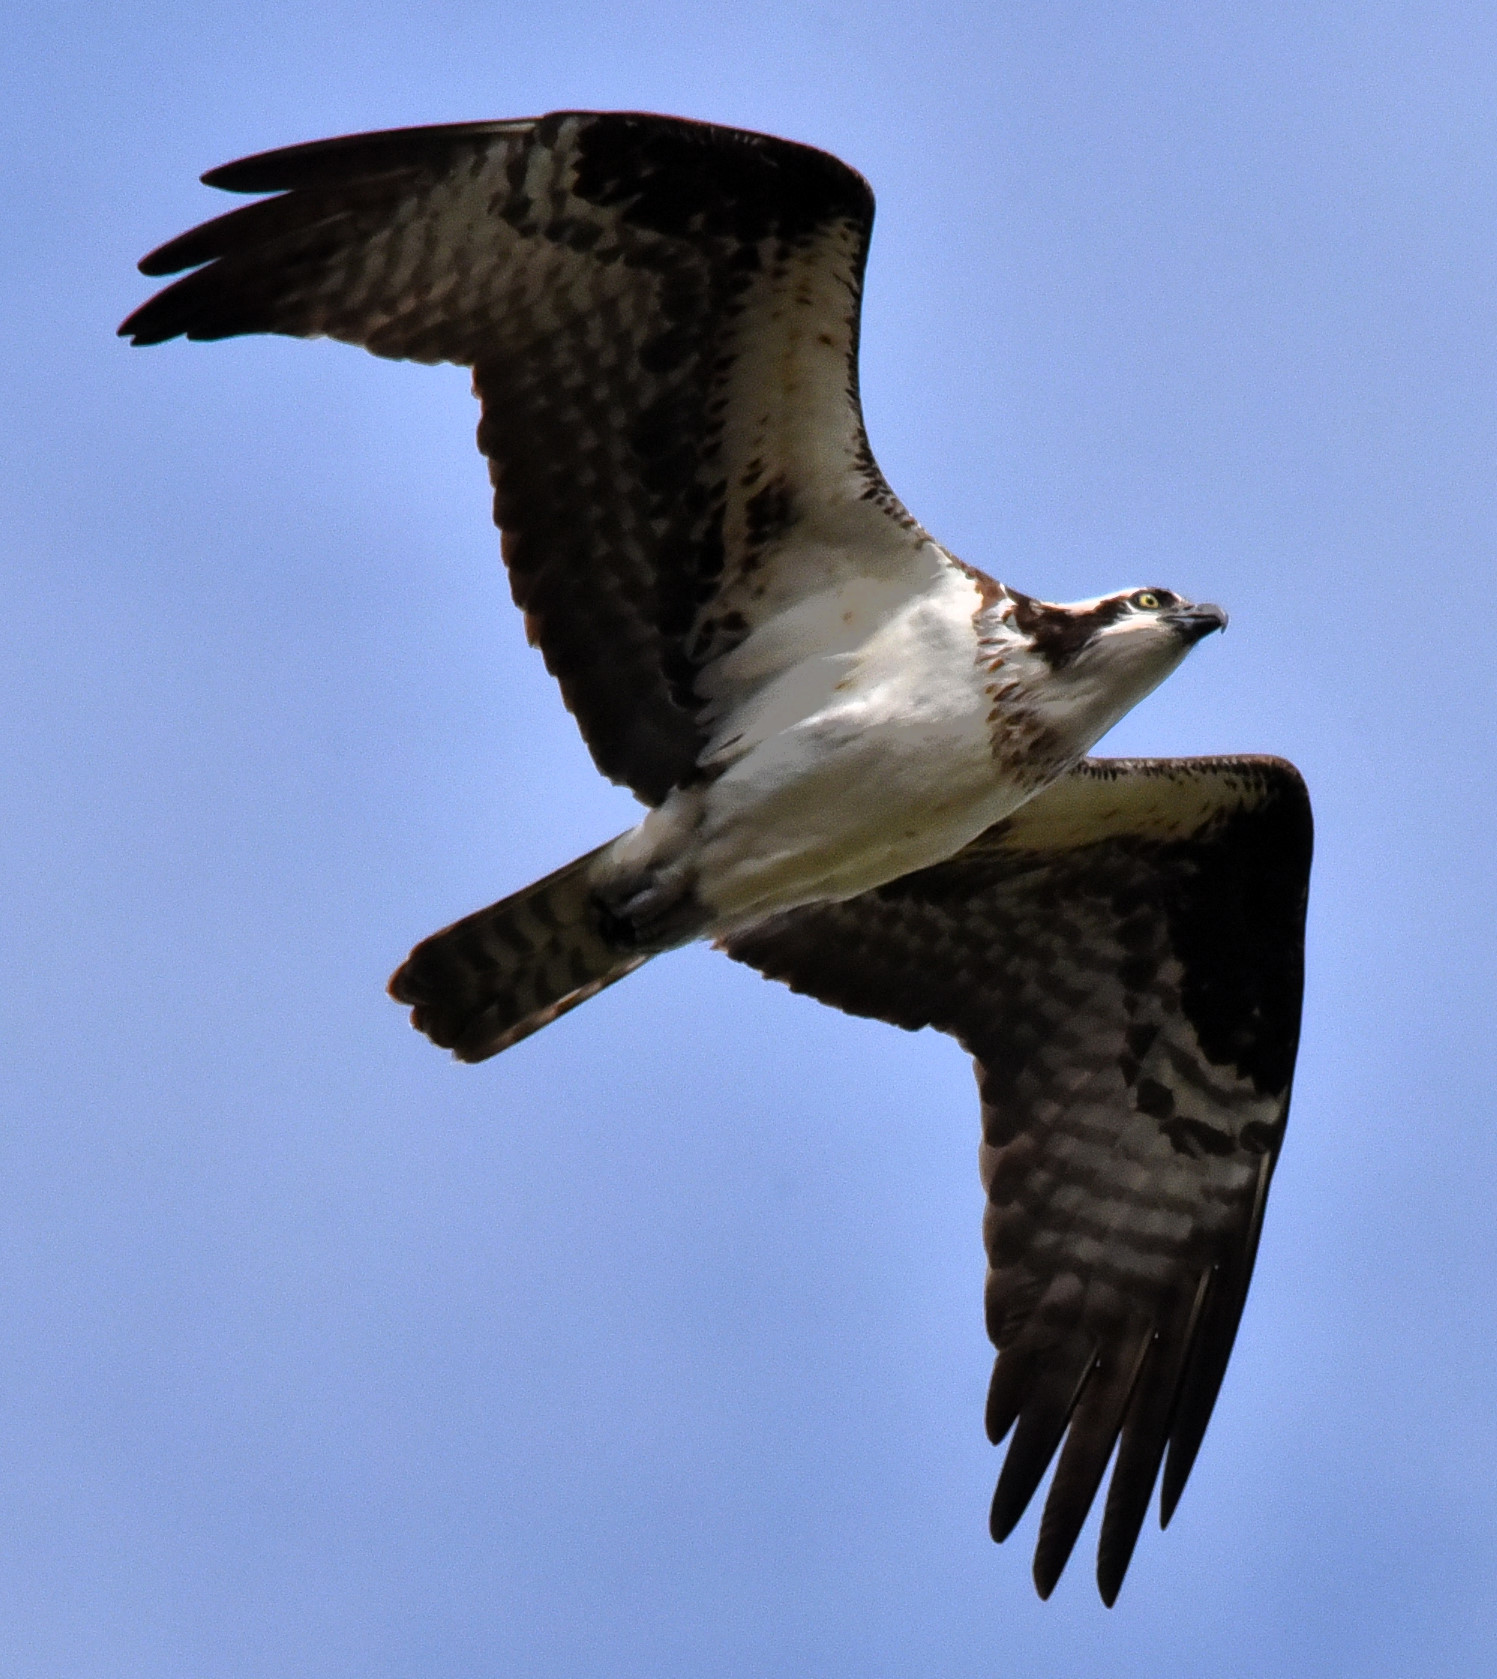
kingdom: Animalia
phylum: Chordata
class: Aves
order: Accipitriformes
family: Pandionidae
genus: Pandion
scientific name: Pandion haliaetus
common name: Osprey
